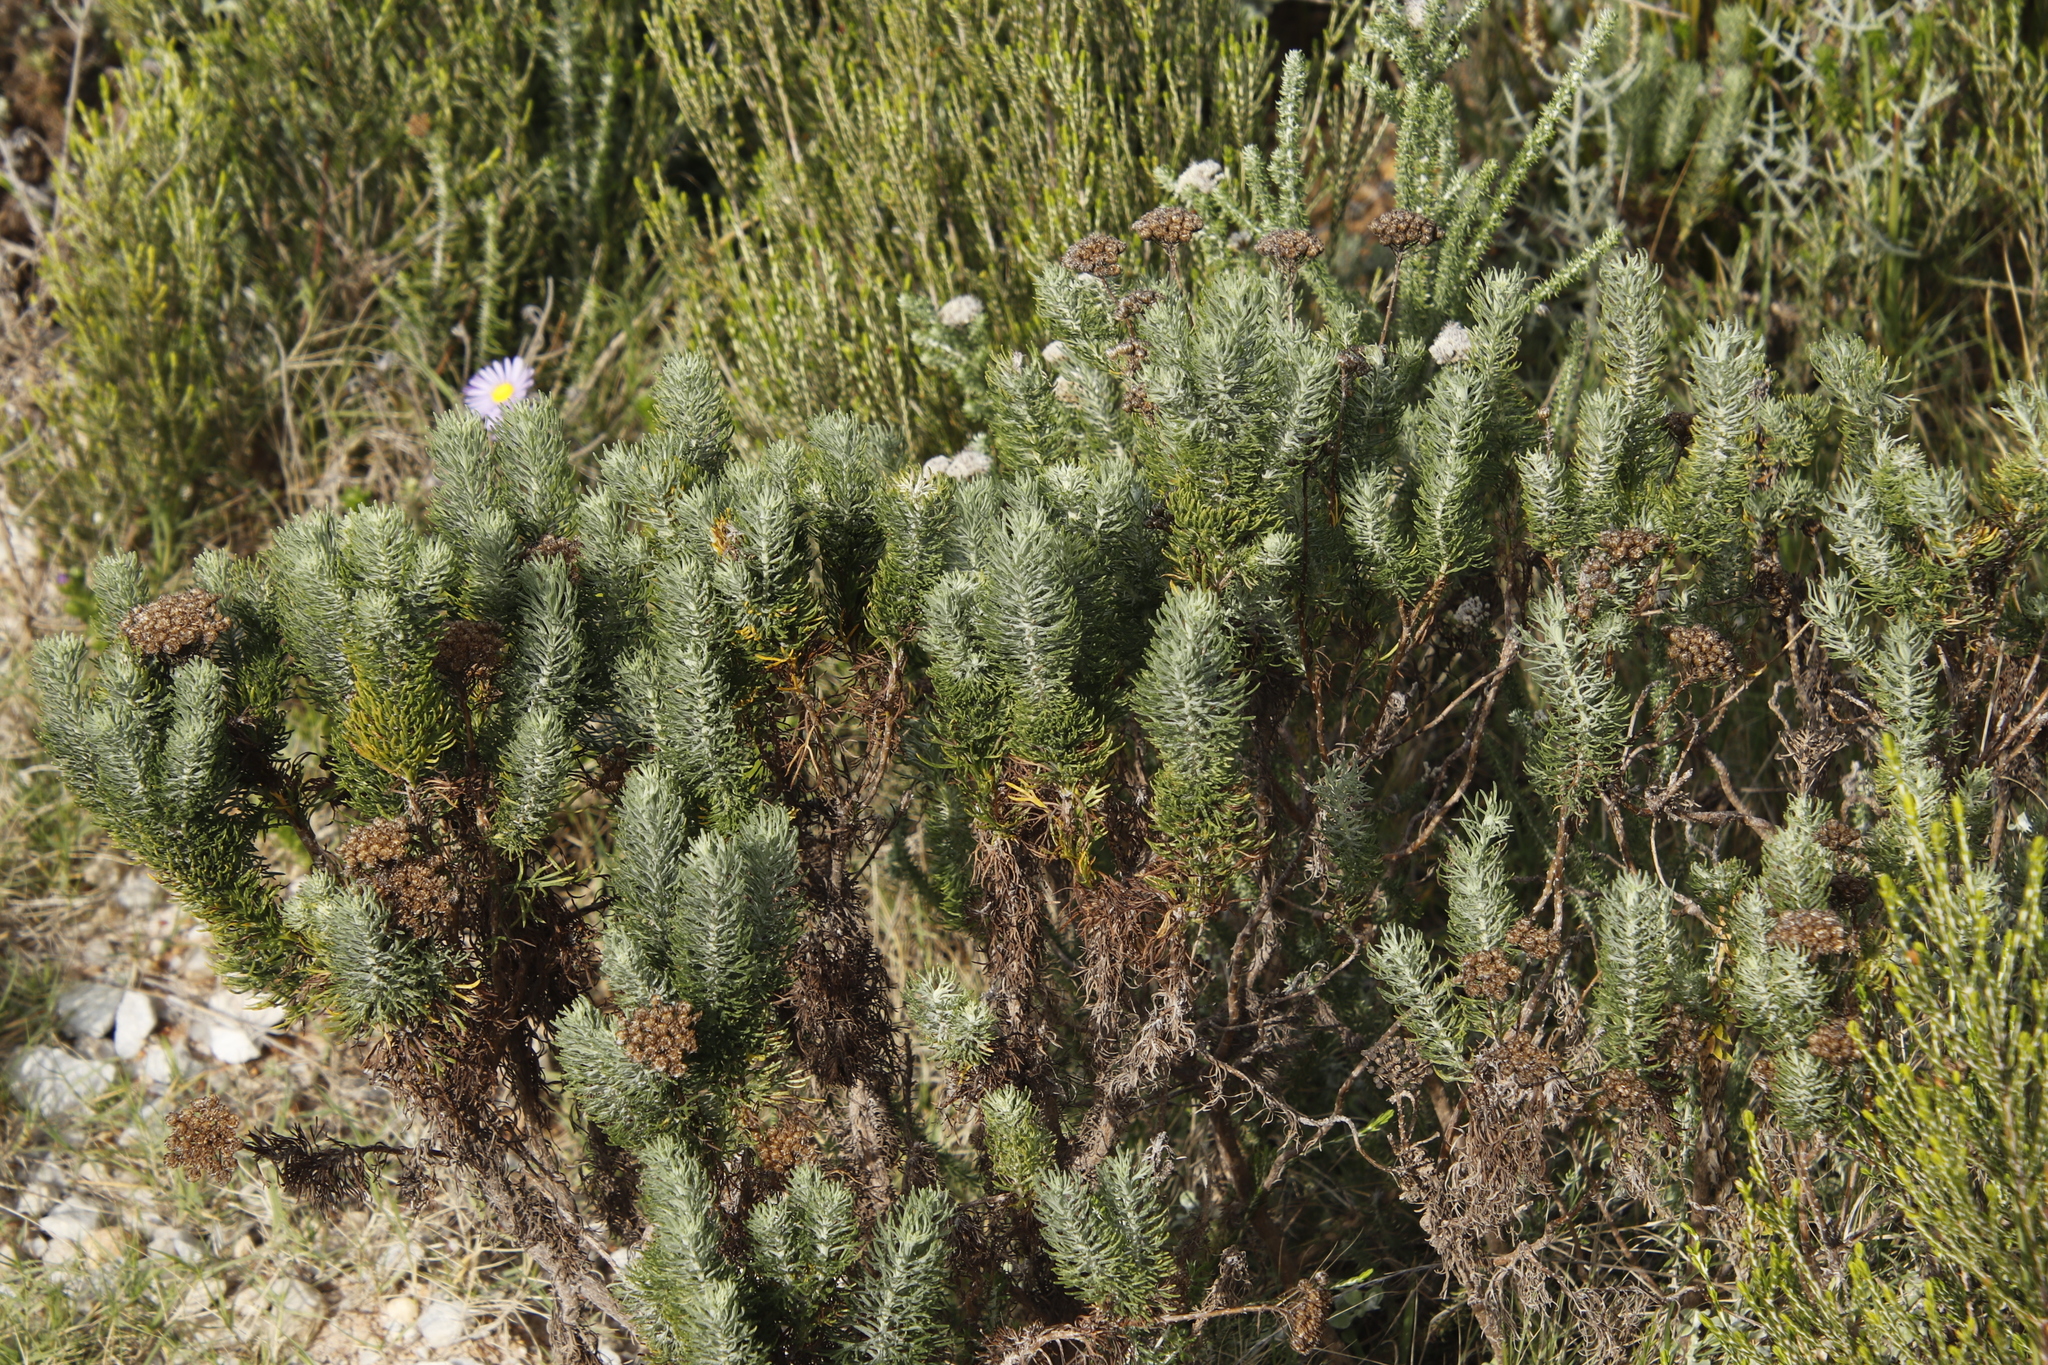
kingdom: Plantae
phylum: Tracheophyta
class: Magnoliopsida
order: Asterales
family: Asteraceae
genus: Athanasia
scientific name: Athanasia crithmifolia
